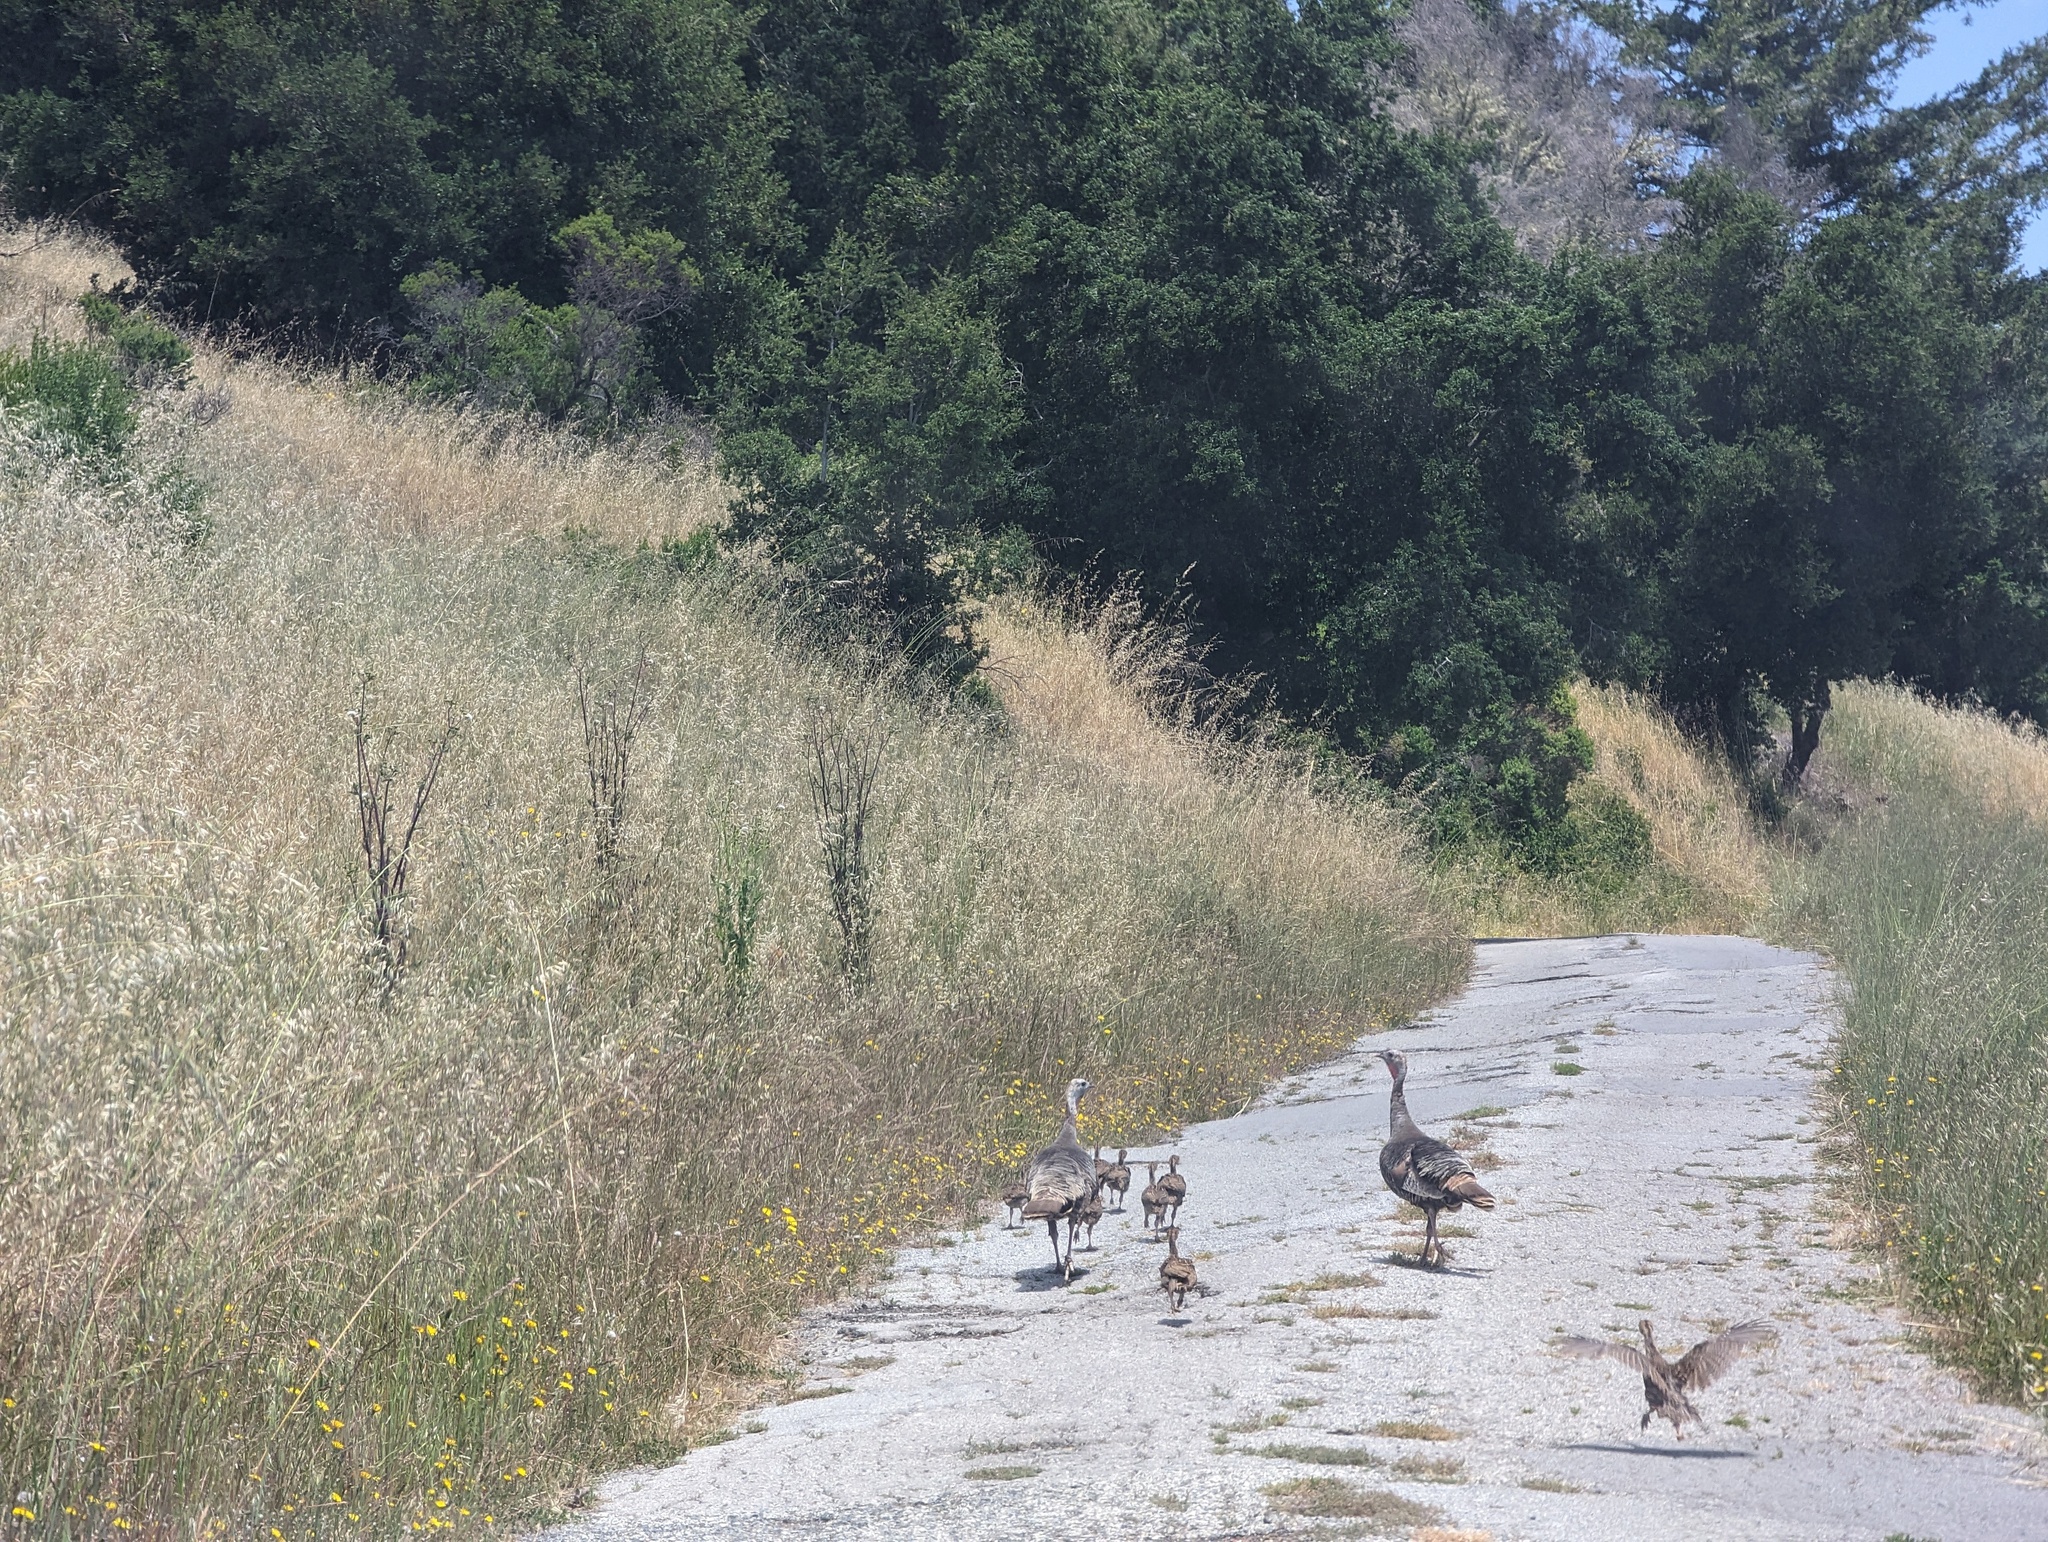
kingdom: Animalia
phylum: Chordata
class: Aves
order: Galliformes
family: Phasianidae
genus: Meleagris
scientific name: Meleagris gallopavo
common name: Wild turkey
